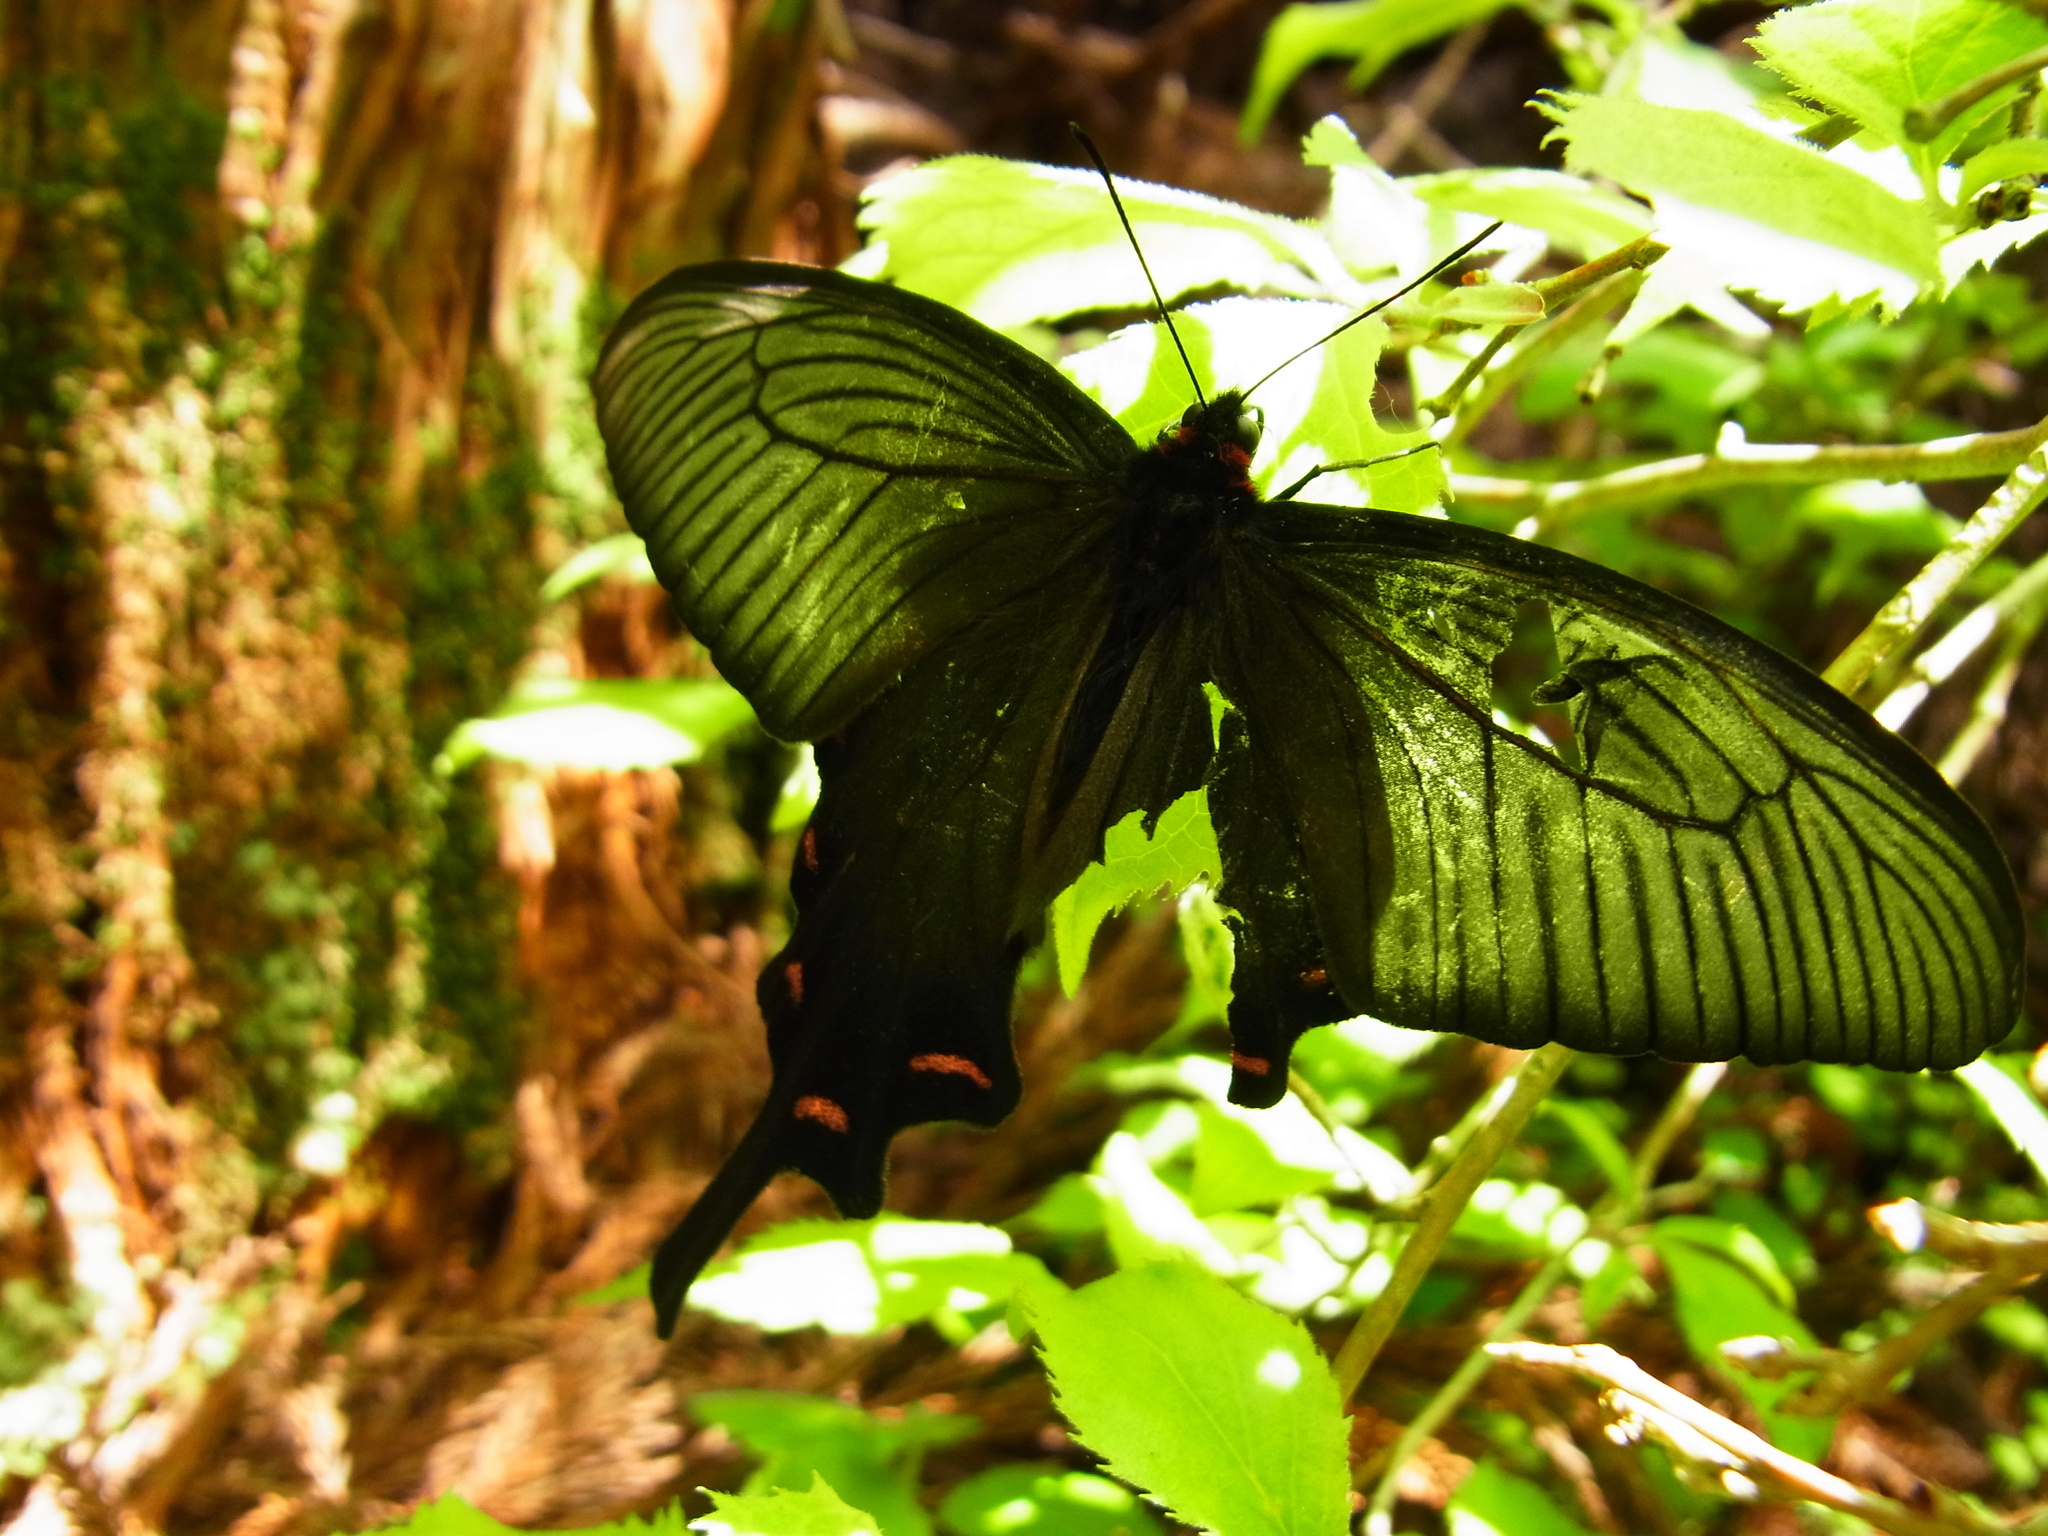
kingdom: Animalia
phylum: Arthropoda
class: Insecta
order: Lepidoptera
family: Papilionidae
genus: Byasa
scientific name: Byasa alcinous
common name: Chinese windmill
